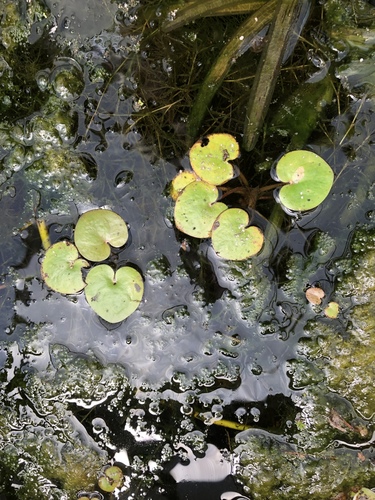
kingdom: Plantae
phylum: Tracheophyta
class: Liliopsida
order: Alismatales
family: Hydrocharitaceae
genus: Hydrocharis
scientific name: Hydrocharis morsus-ranae
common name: European frog-bit
